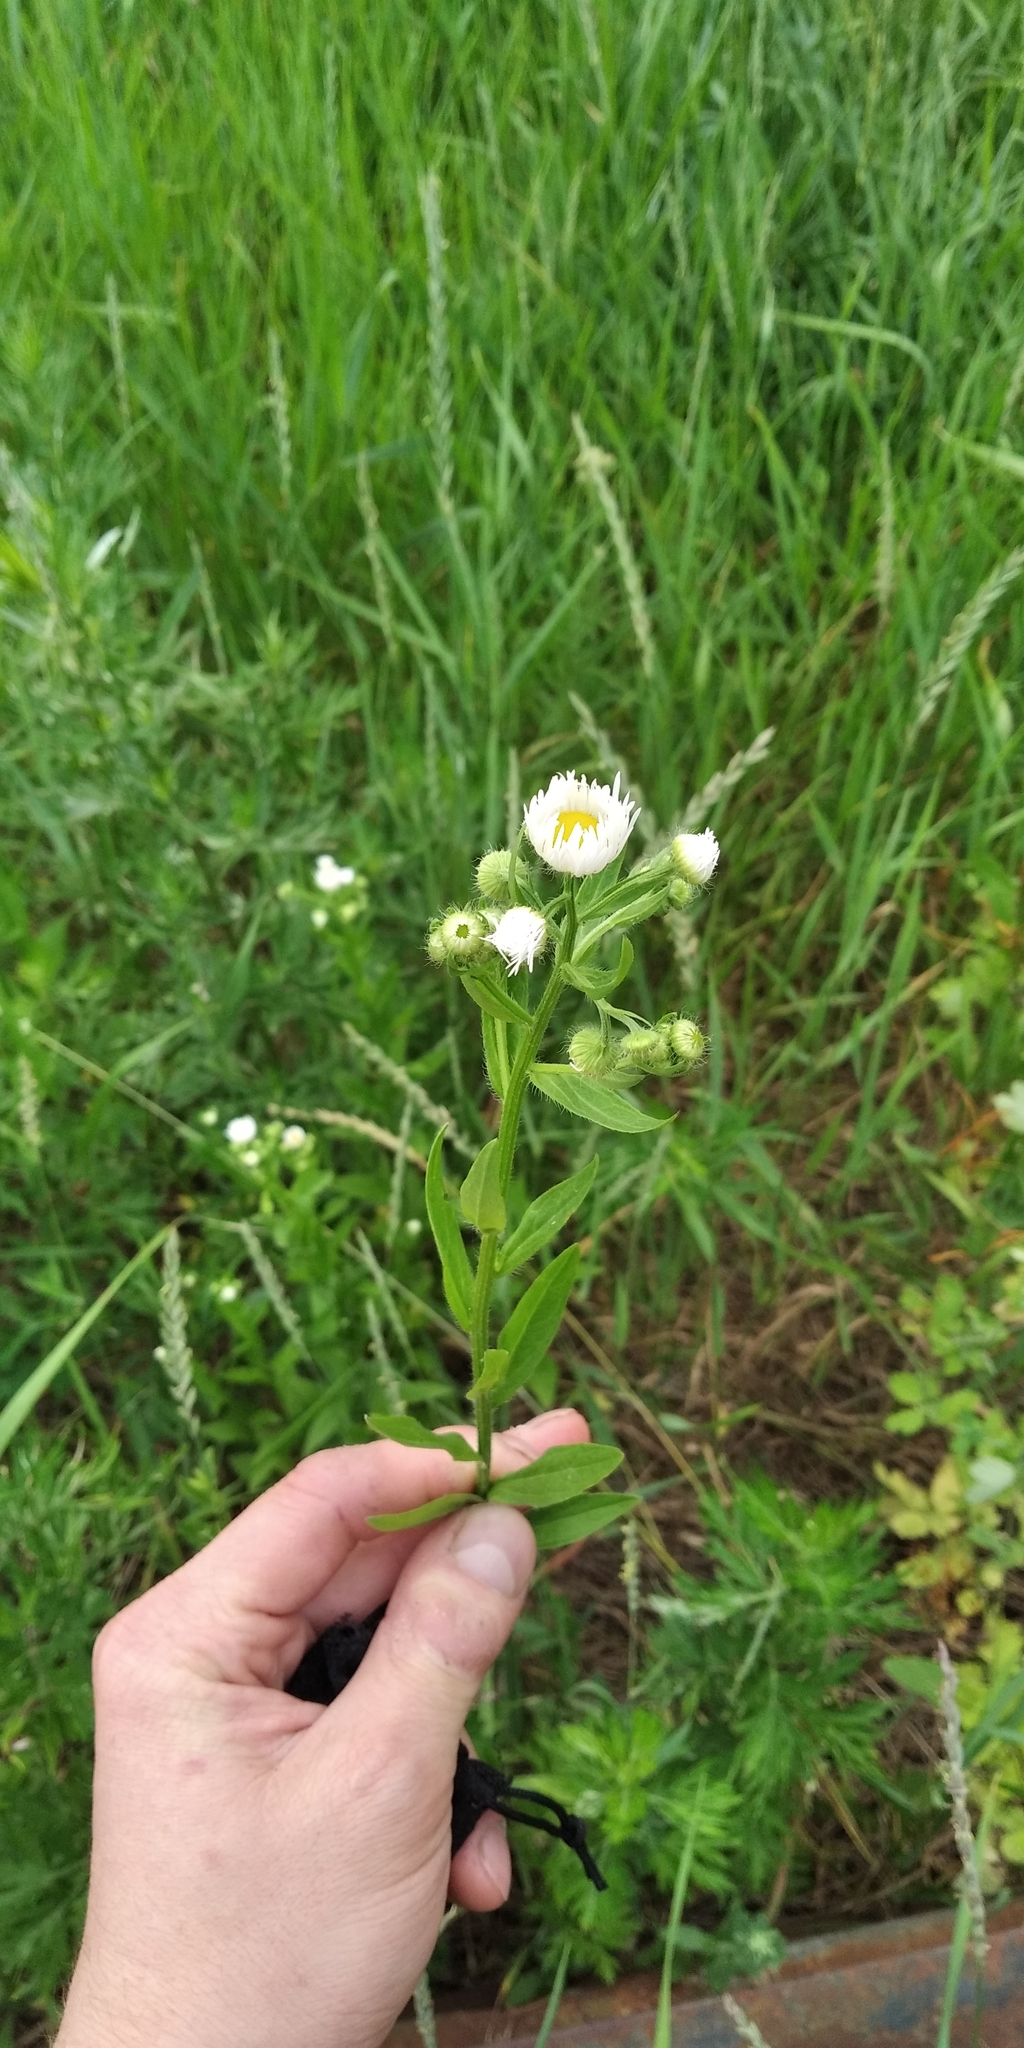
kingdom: Plantae
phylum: Tracheophyta
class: Magnoliopsida
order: Asterales
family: Asteraceae
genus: Erigeron
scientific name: Erigeron annuus
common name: Tall fleabane
